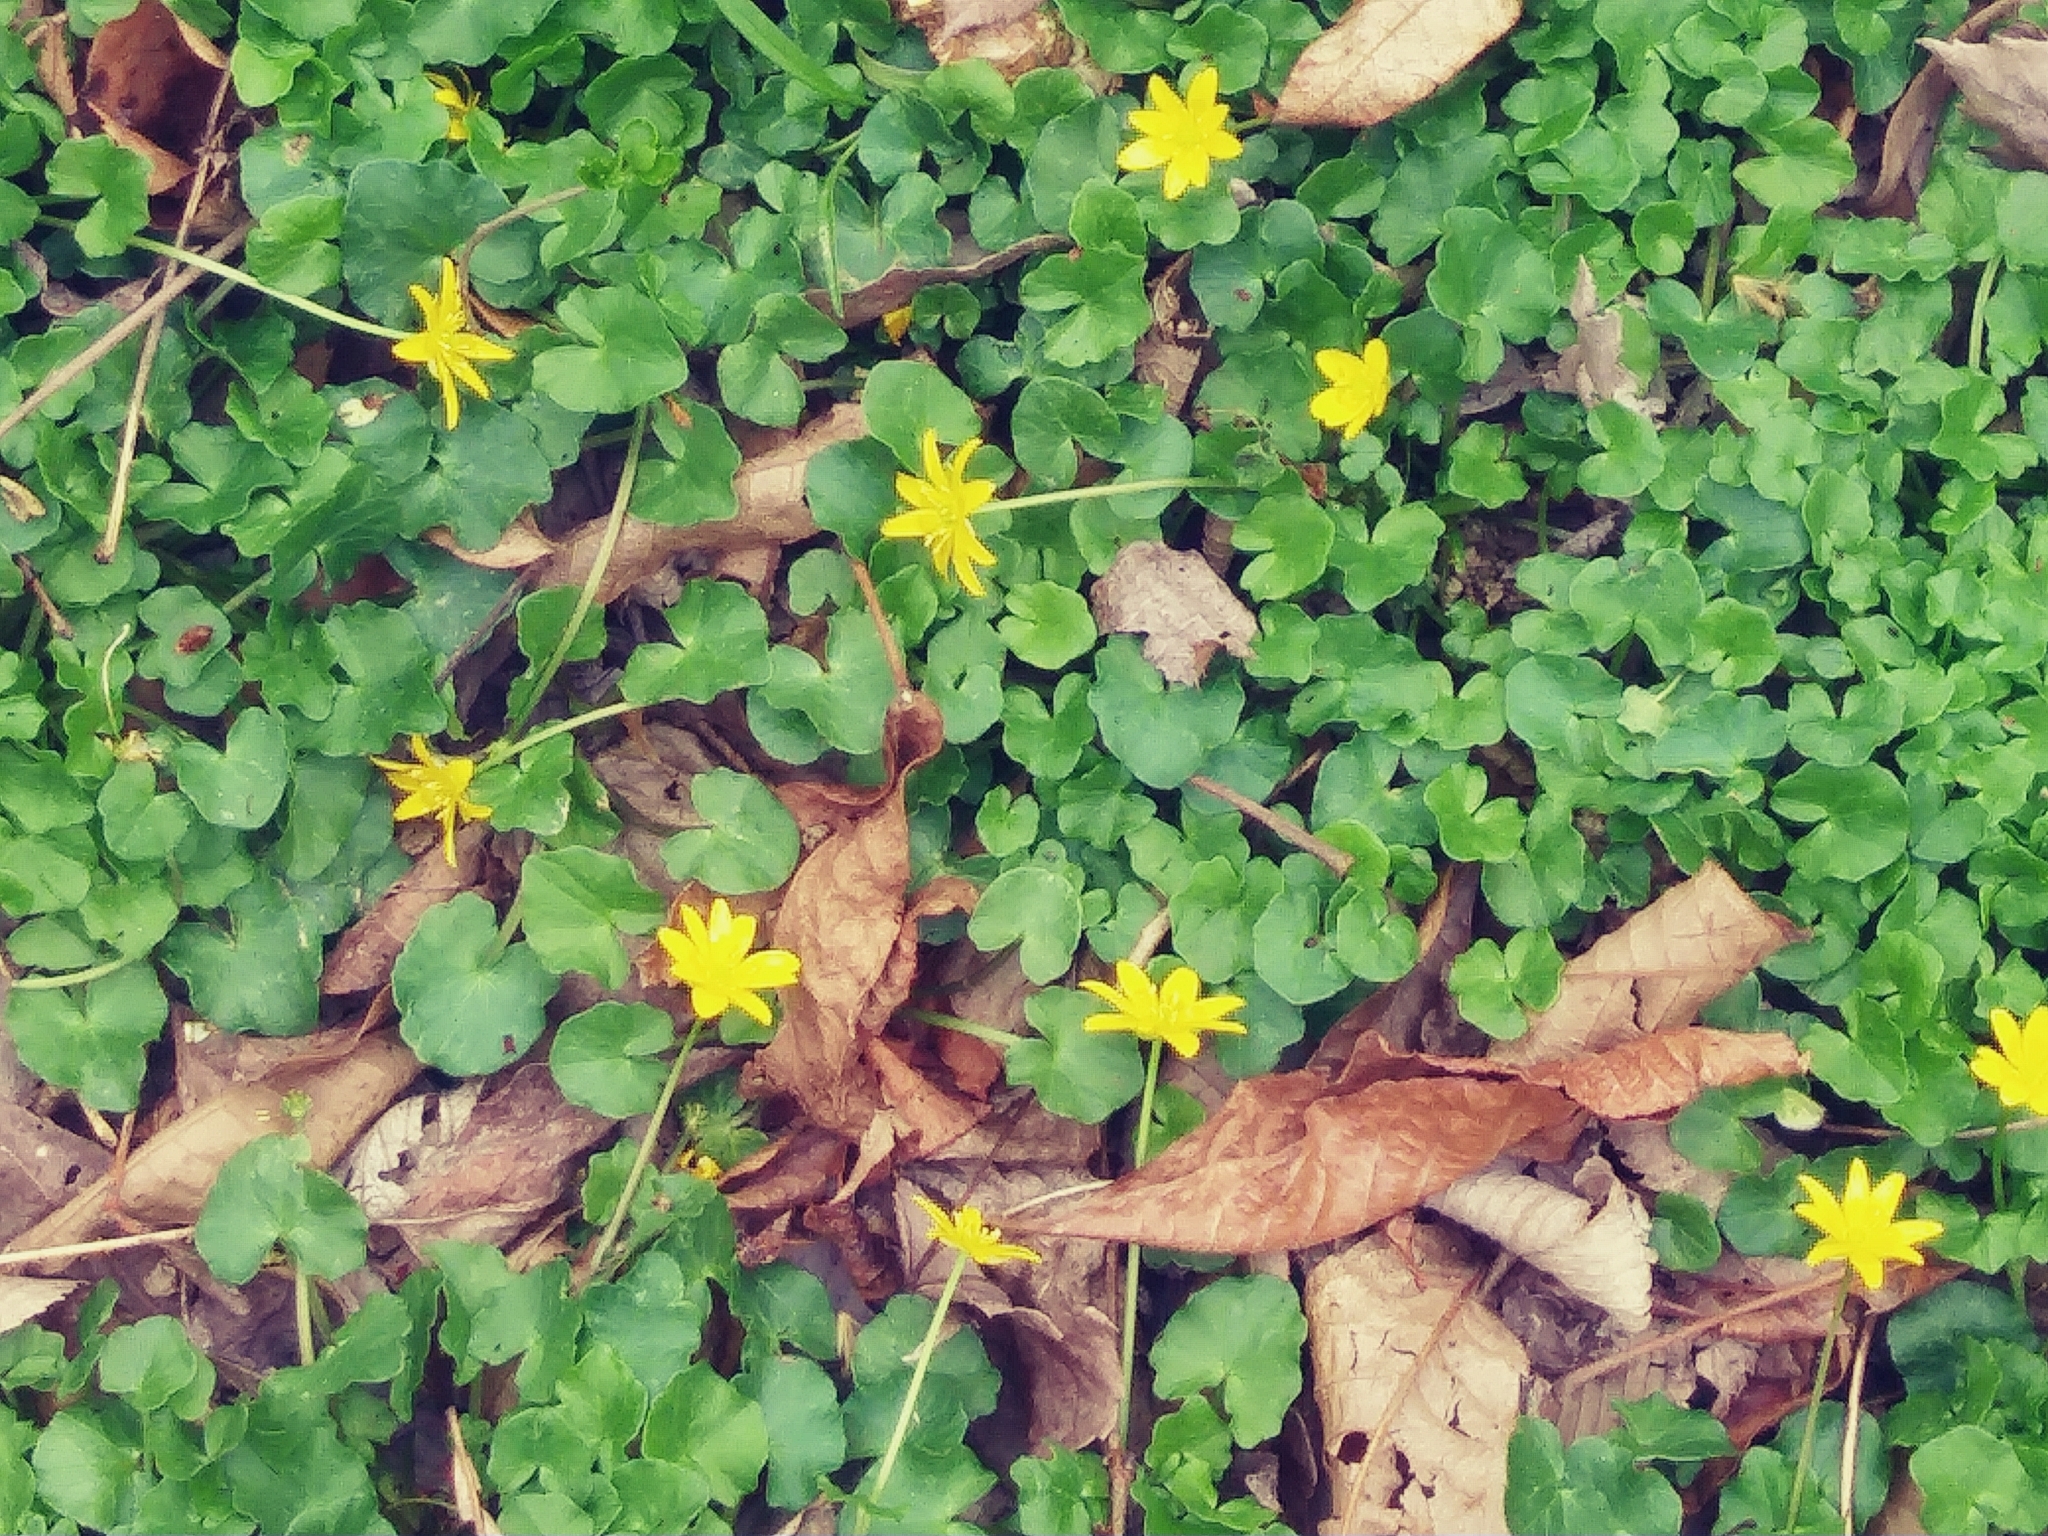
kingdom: Plantae
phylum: Tracheophyta
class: Magnoliopsida
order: Ranunculales
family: Ranunculaceae
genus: Ficaria
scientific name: Ficaria verna
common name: Lesser celandine
